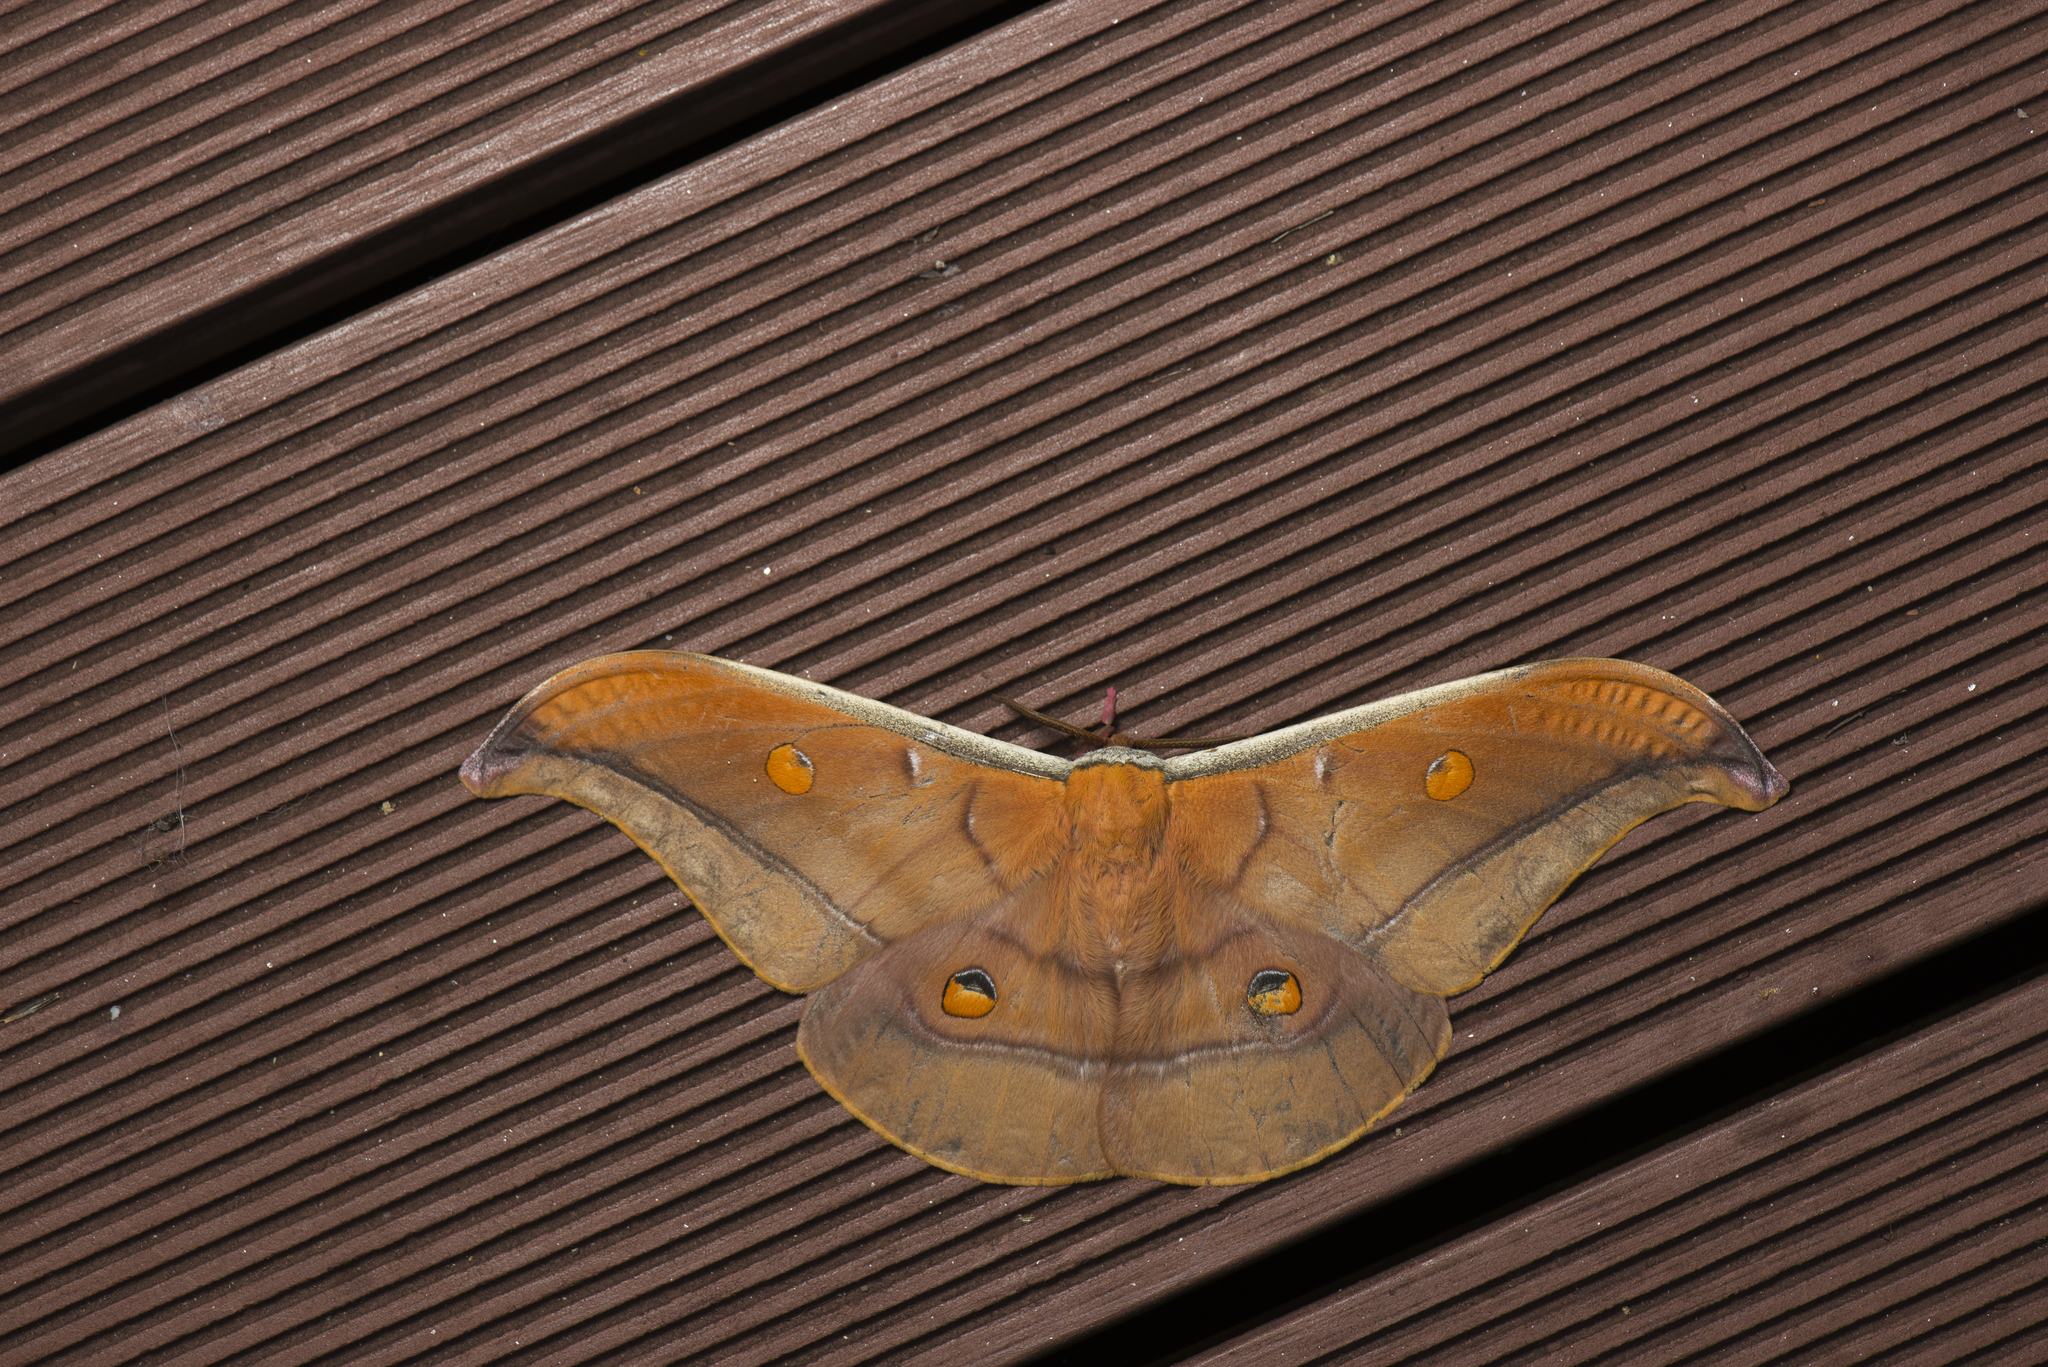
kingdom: Animalia
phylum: Arthropoda
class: Insecta
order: Lepidoptera
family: Saturniidae
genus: Antheraea
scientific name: Antheraea formosana
